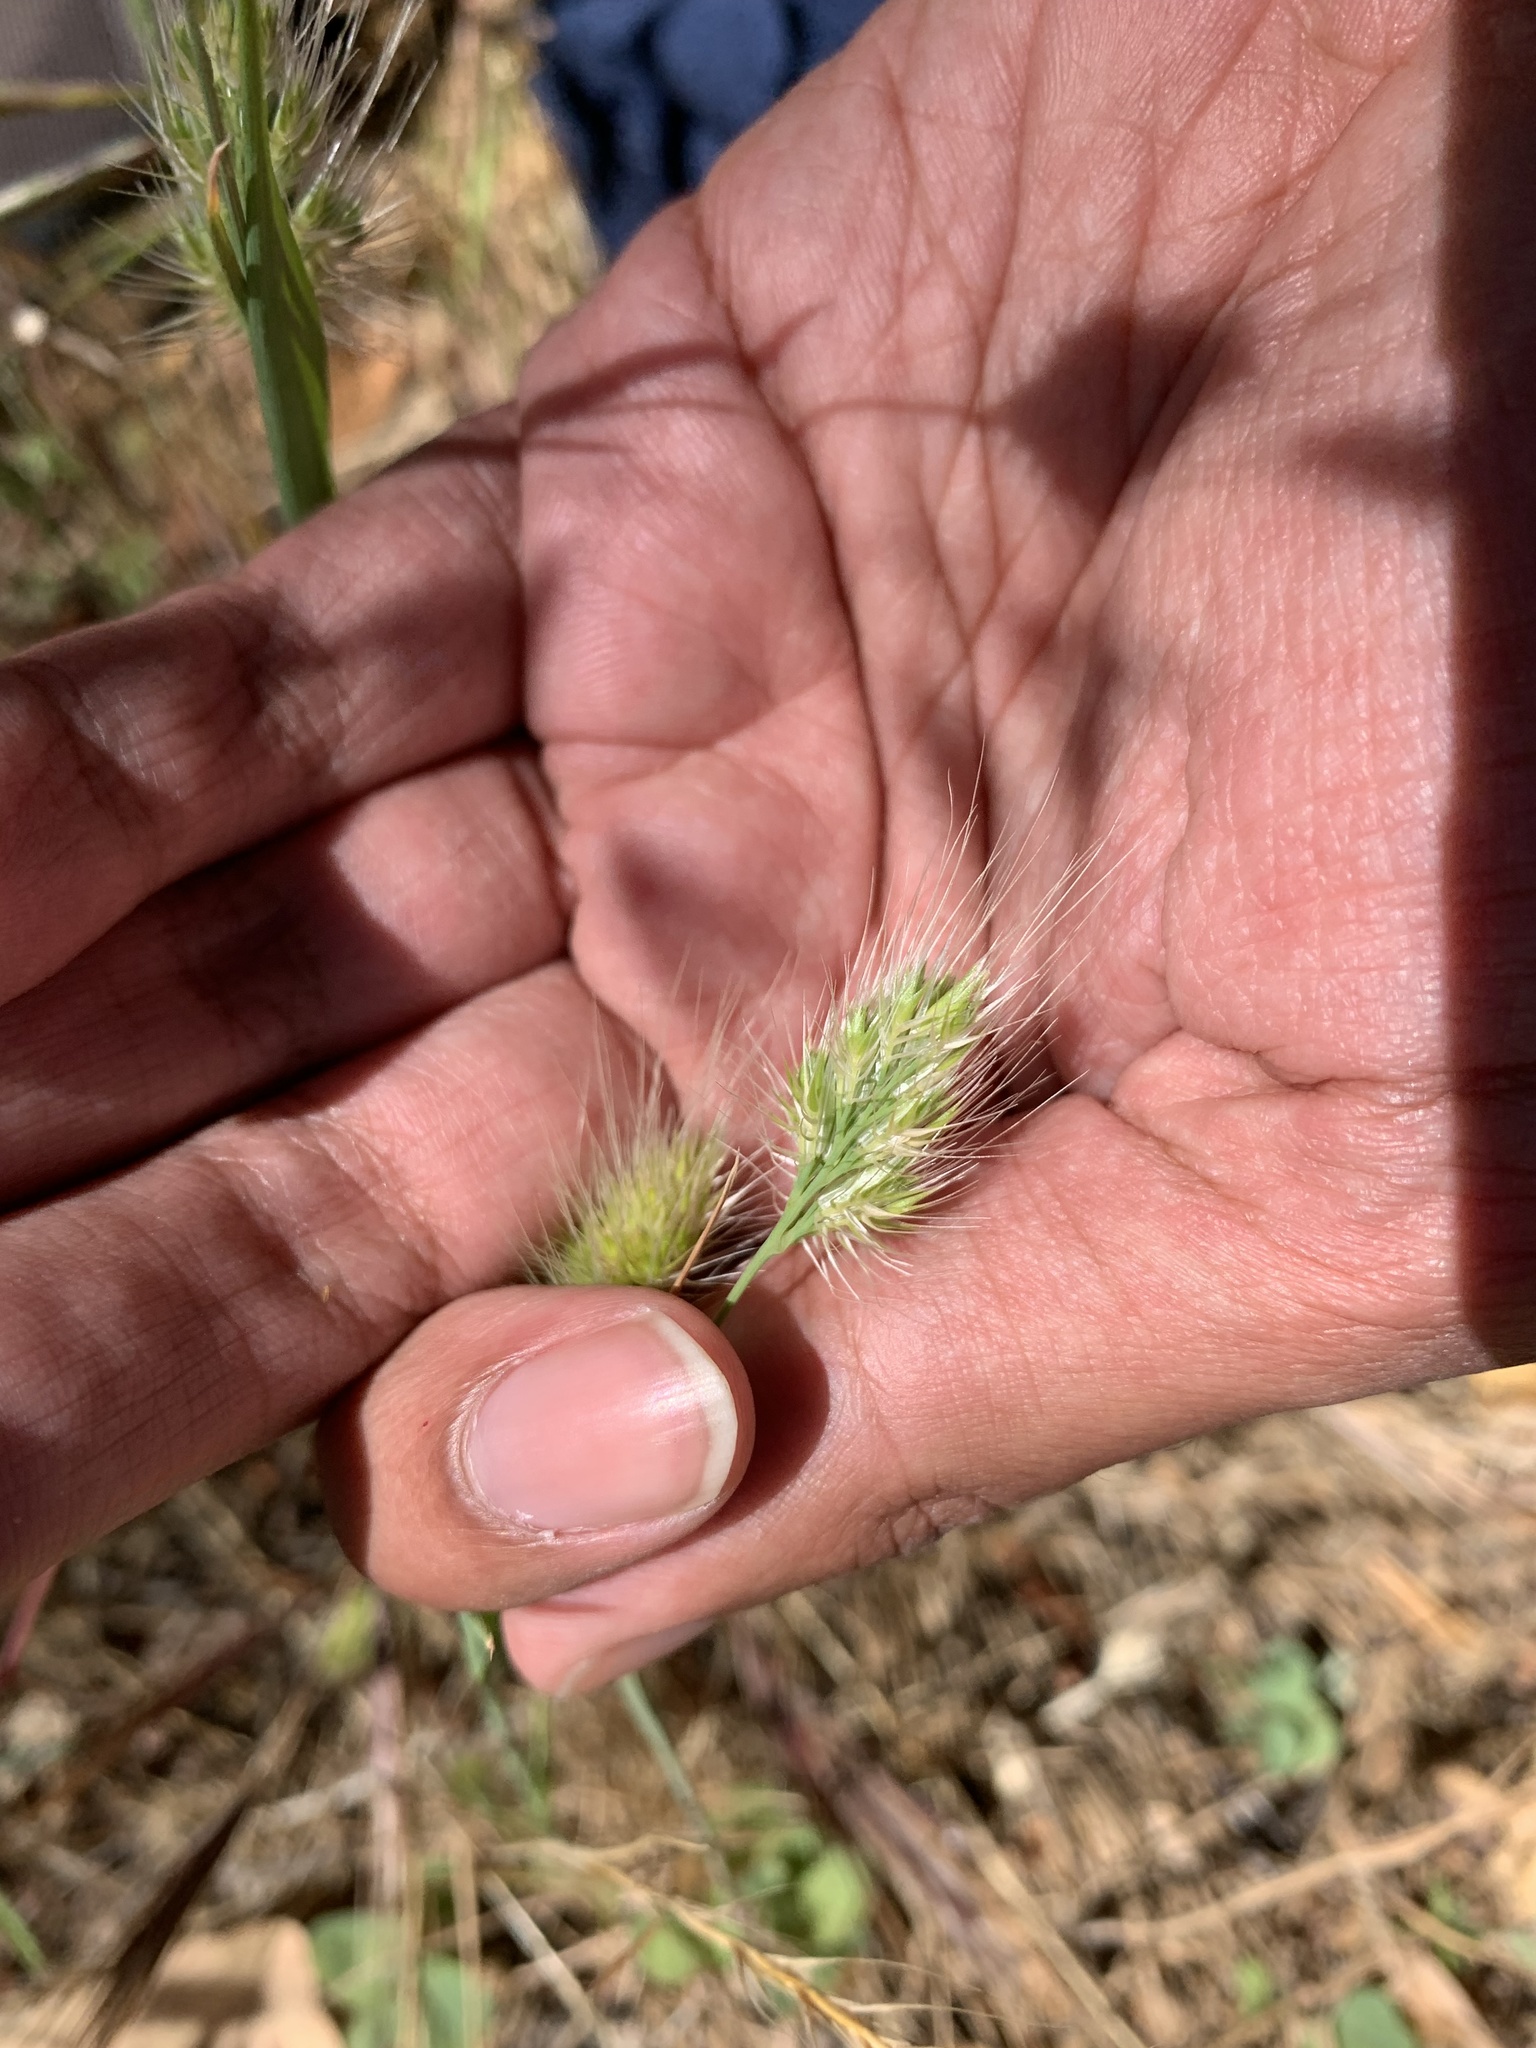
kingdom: Plantae
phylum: Tracheophyta
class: Liliopsida
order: Poales
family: Poaceae
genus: Cynosurus
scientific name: Cynosurus echinatus
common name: Rough dog's-tail
